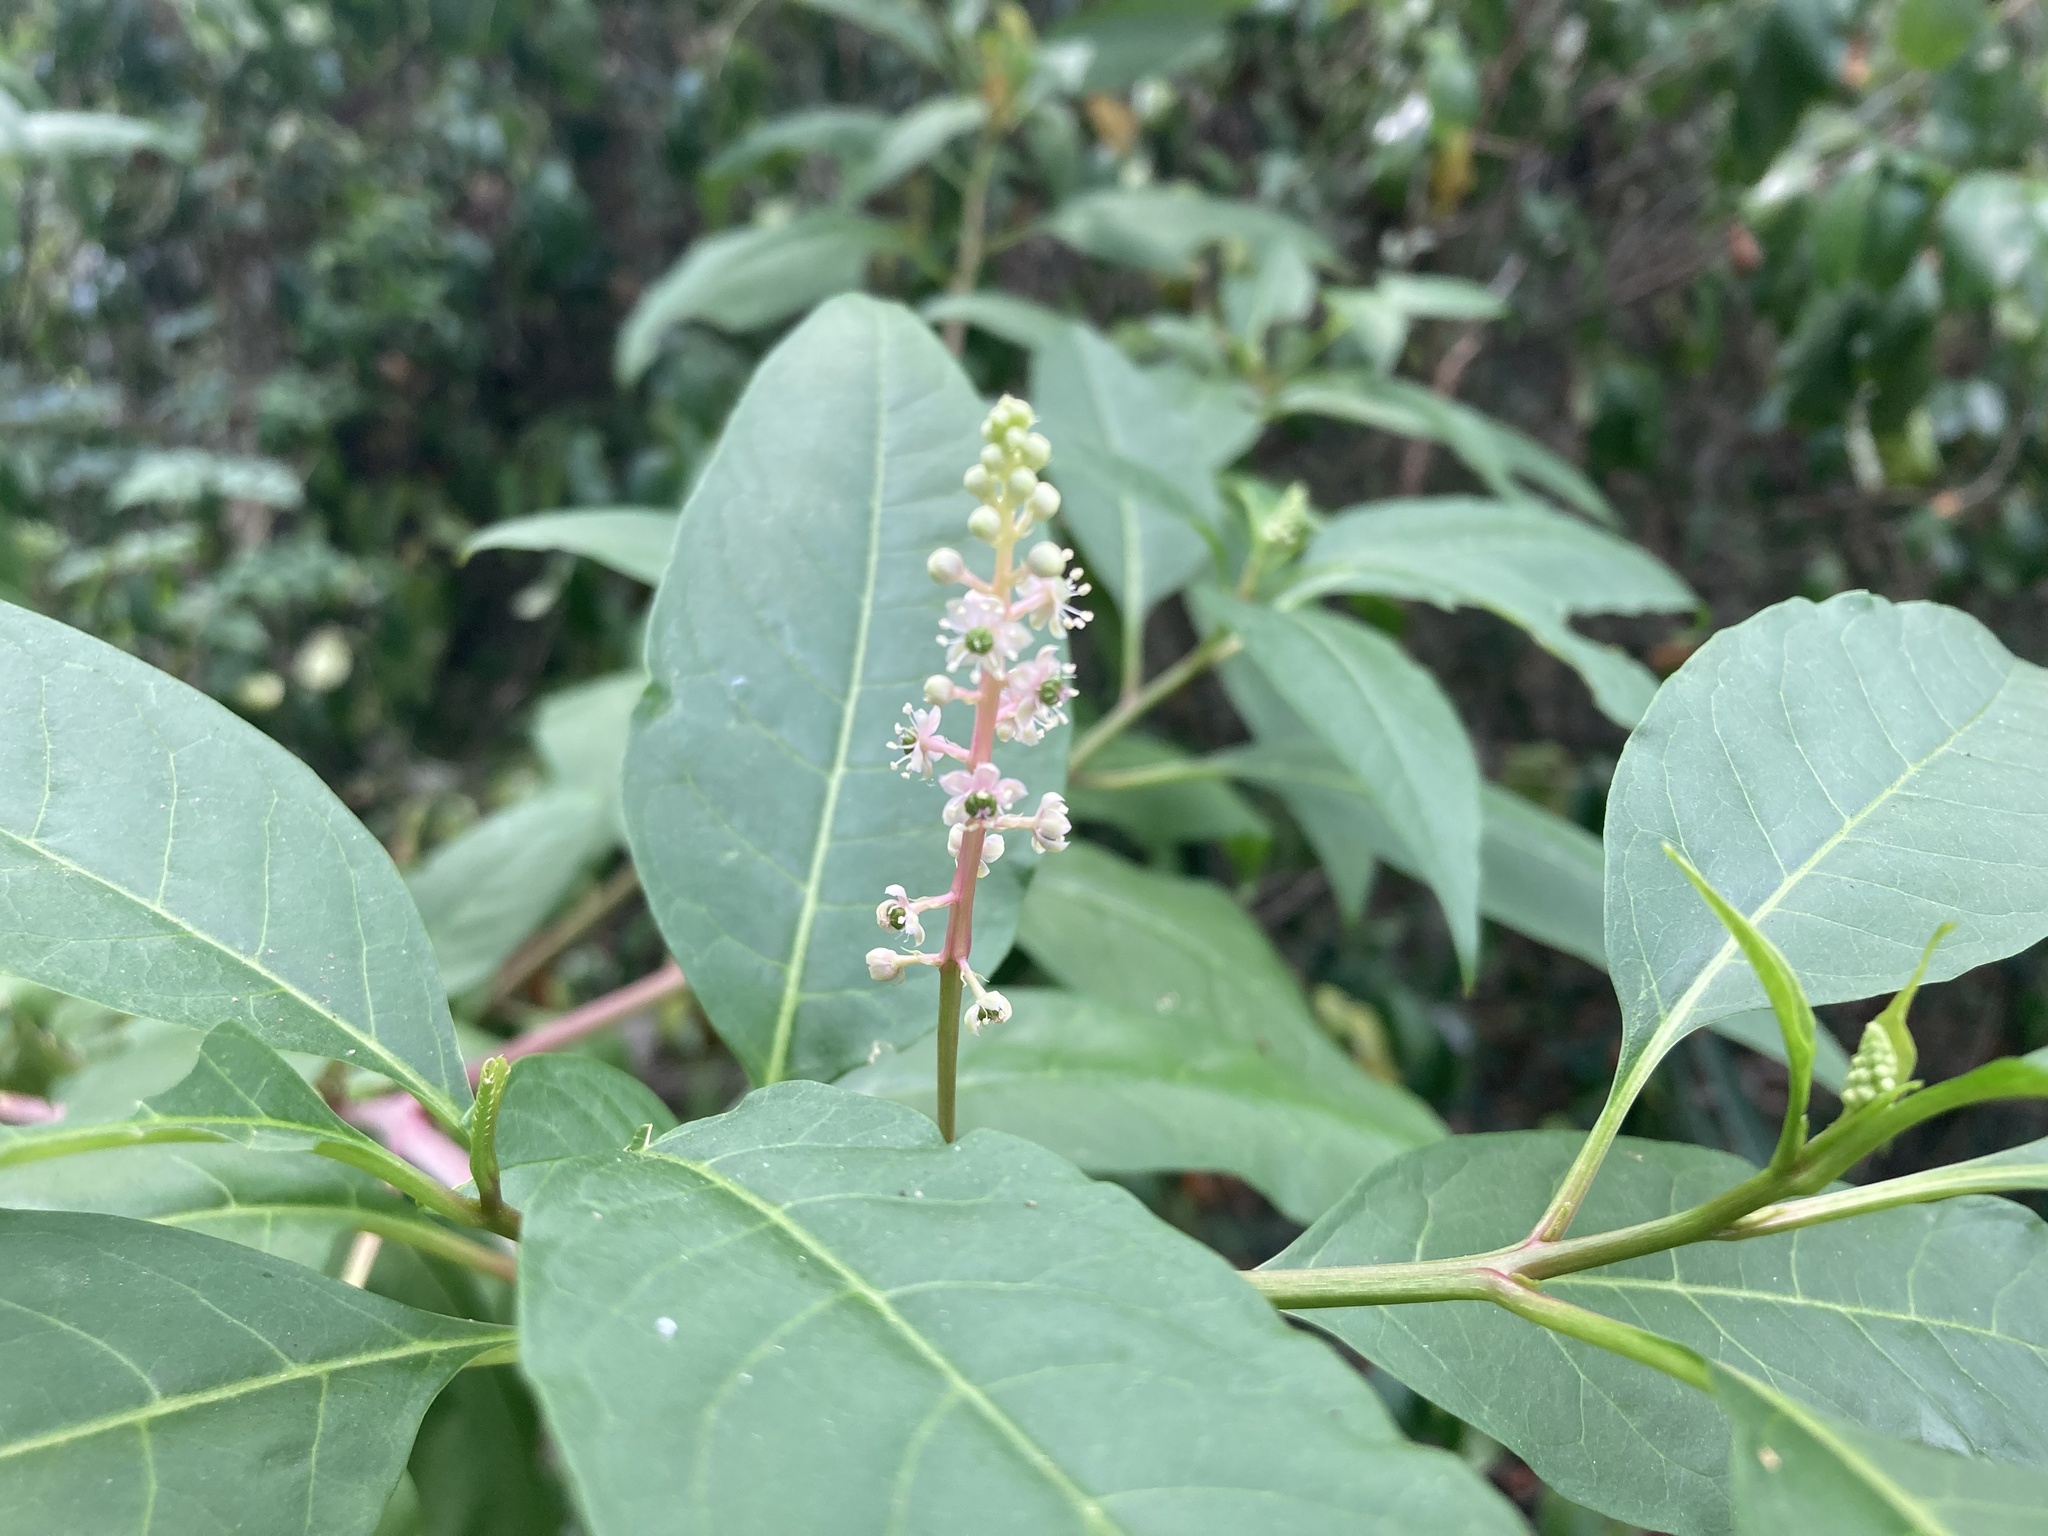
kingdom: Plantae
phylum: Tracheophyta
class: Magnoliopsida
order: Caryophyllales
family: Phytolaccaceae
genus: Phytolacca
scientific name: Phytolacca americana
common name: American pokeweed
